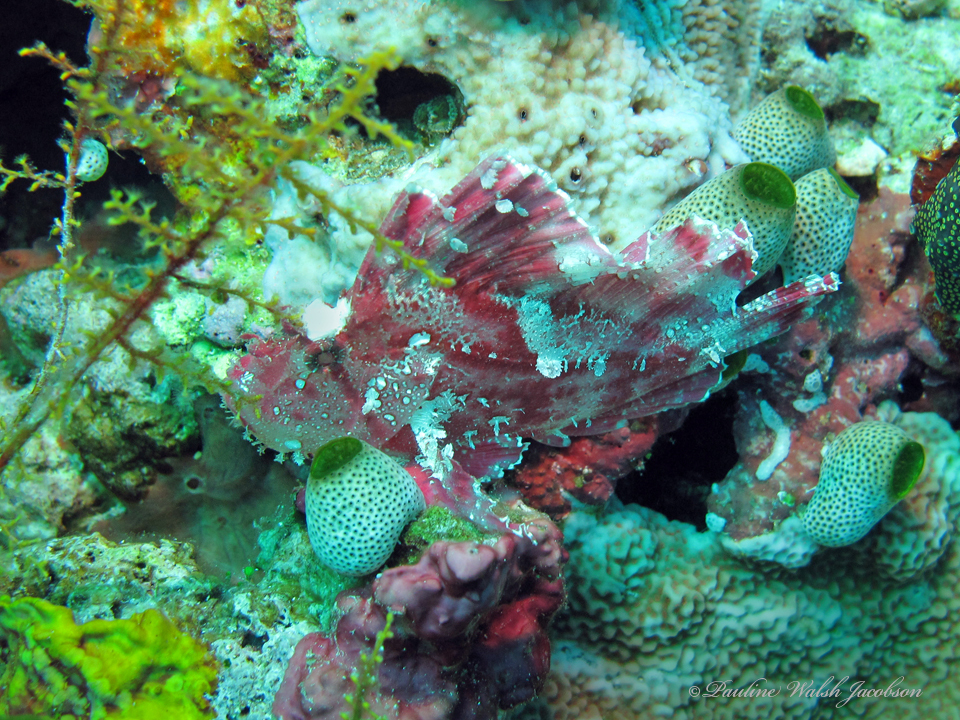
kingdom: Animalia
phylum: Chordata
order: Scorpaeniformes
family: Scorpaenidae
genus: Taenianotus
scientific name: Taenianotus triacanthus
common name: Leaf scorpionfish
